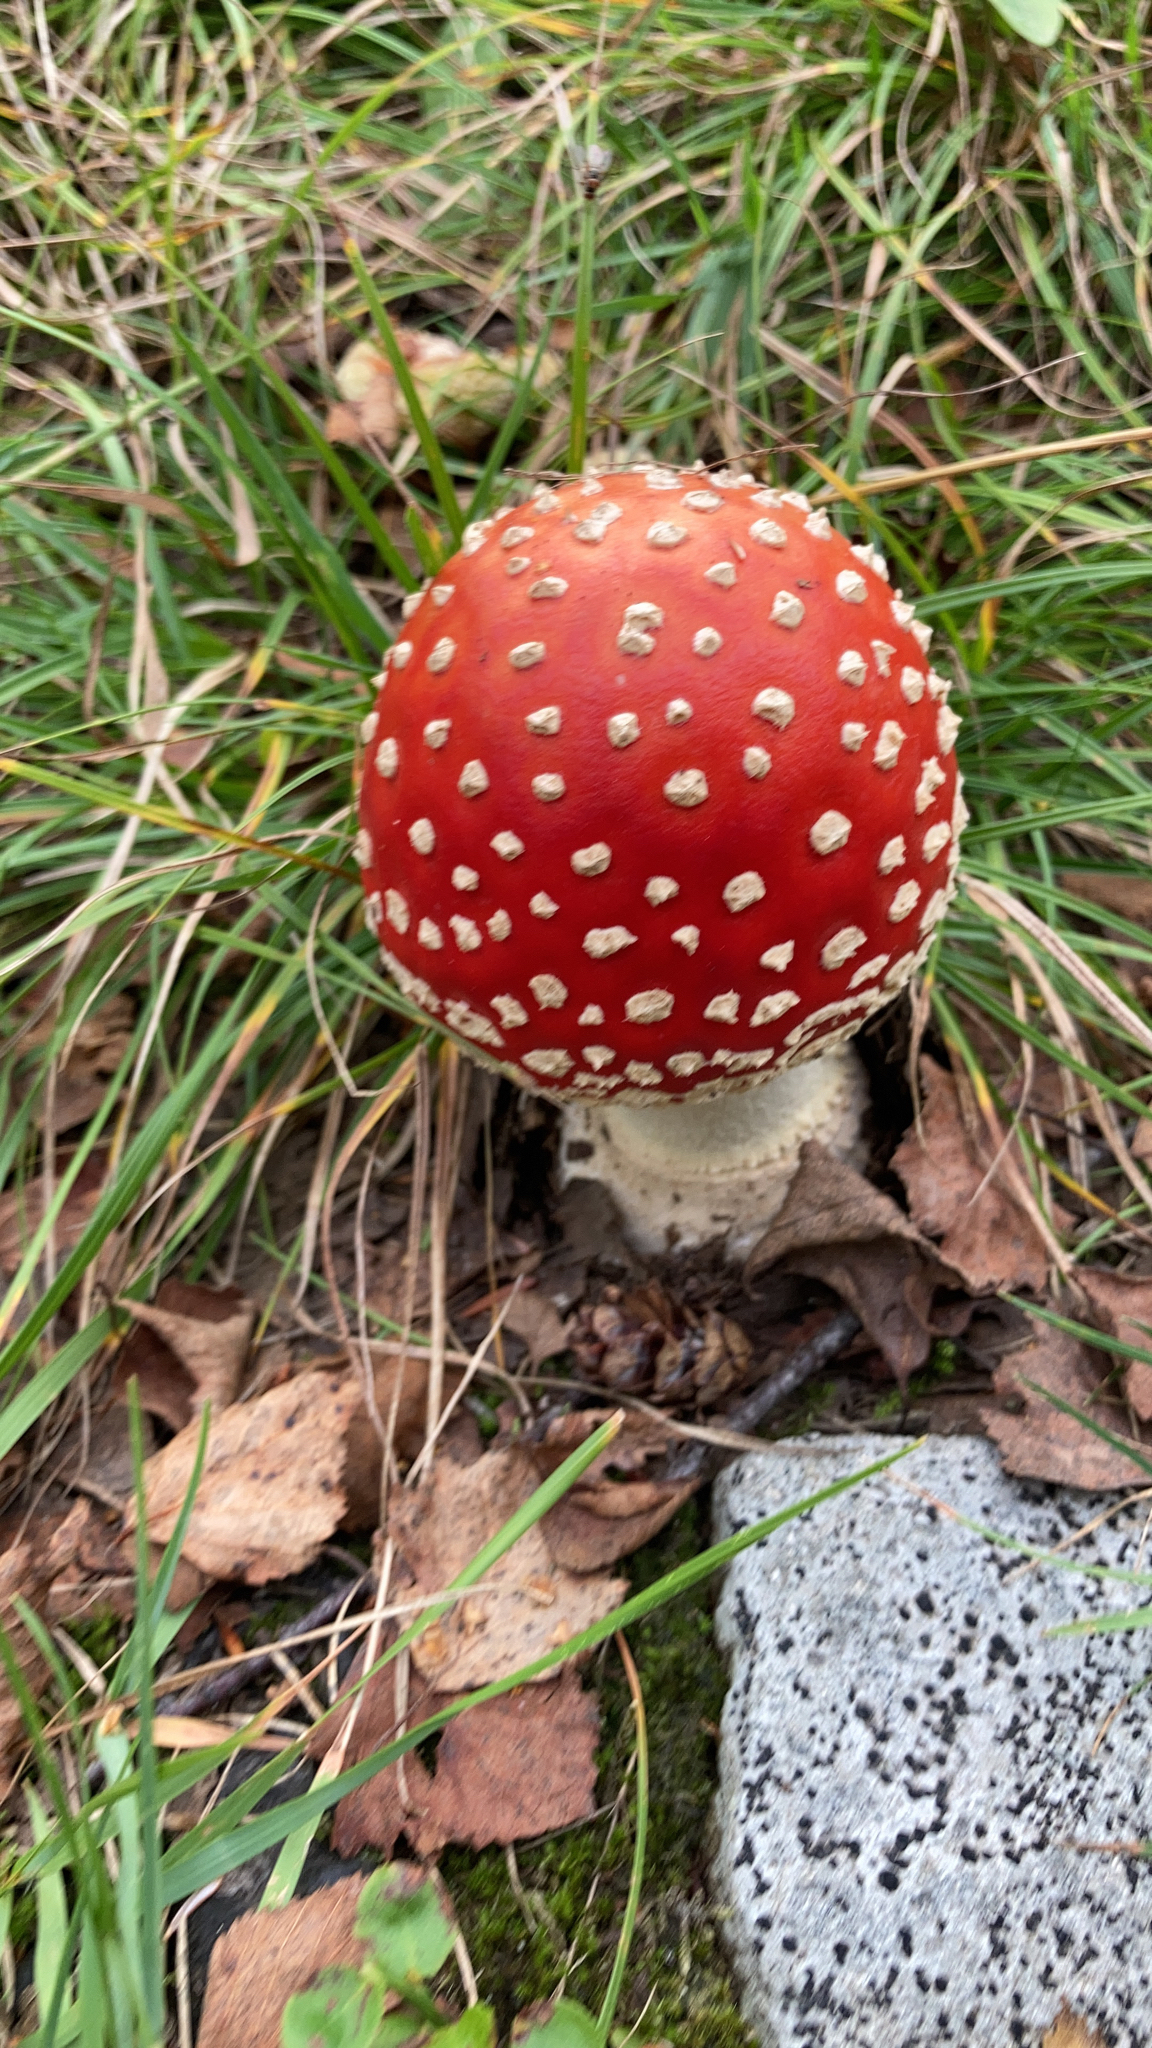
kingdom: Fungi
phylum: Basidiomycota
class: Agaricomycetes
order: Agaricales
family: Amanitaceae
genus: Amanita
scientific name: Amanita muscaria
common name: Fly agaric
